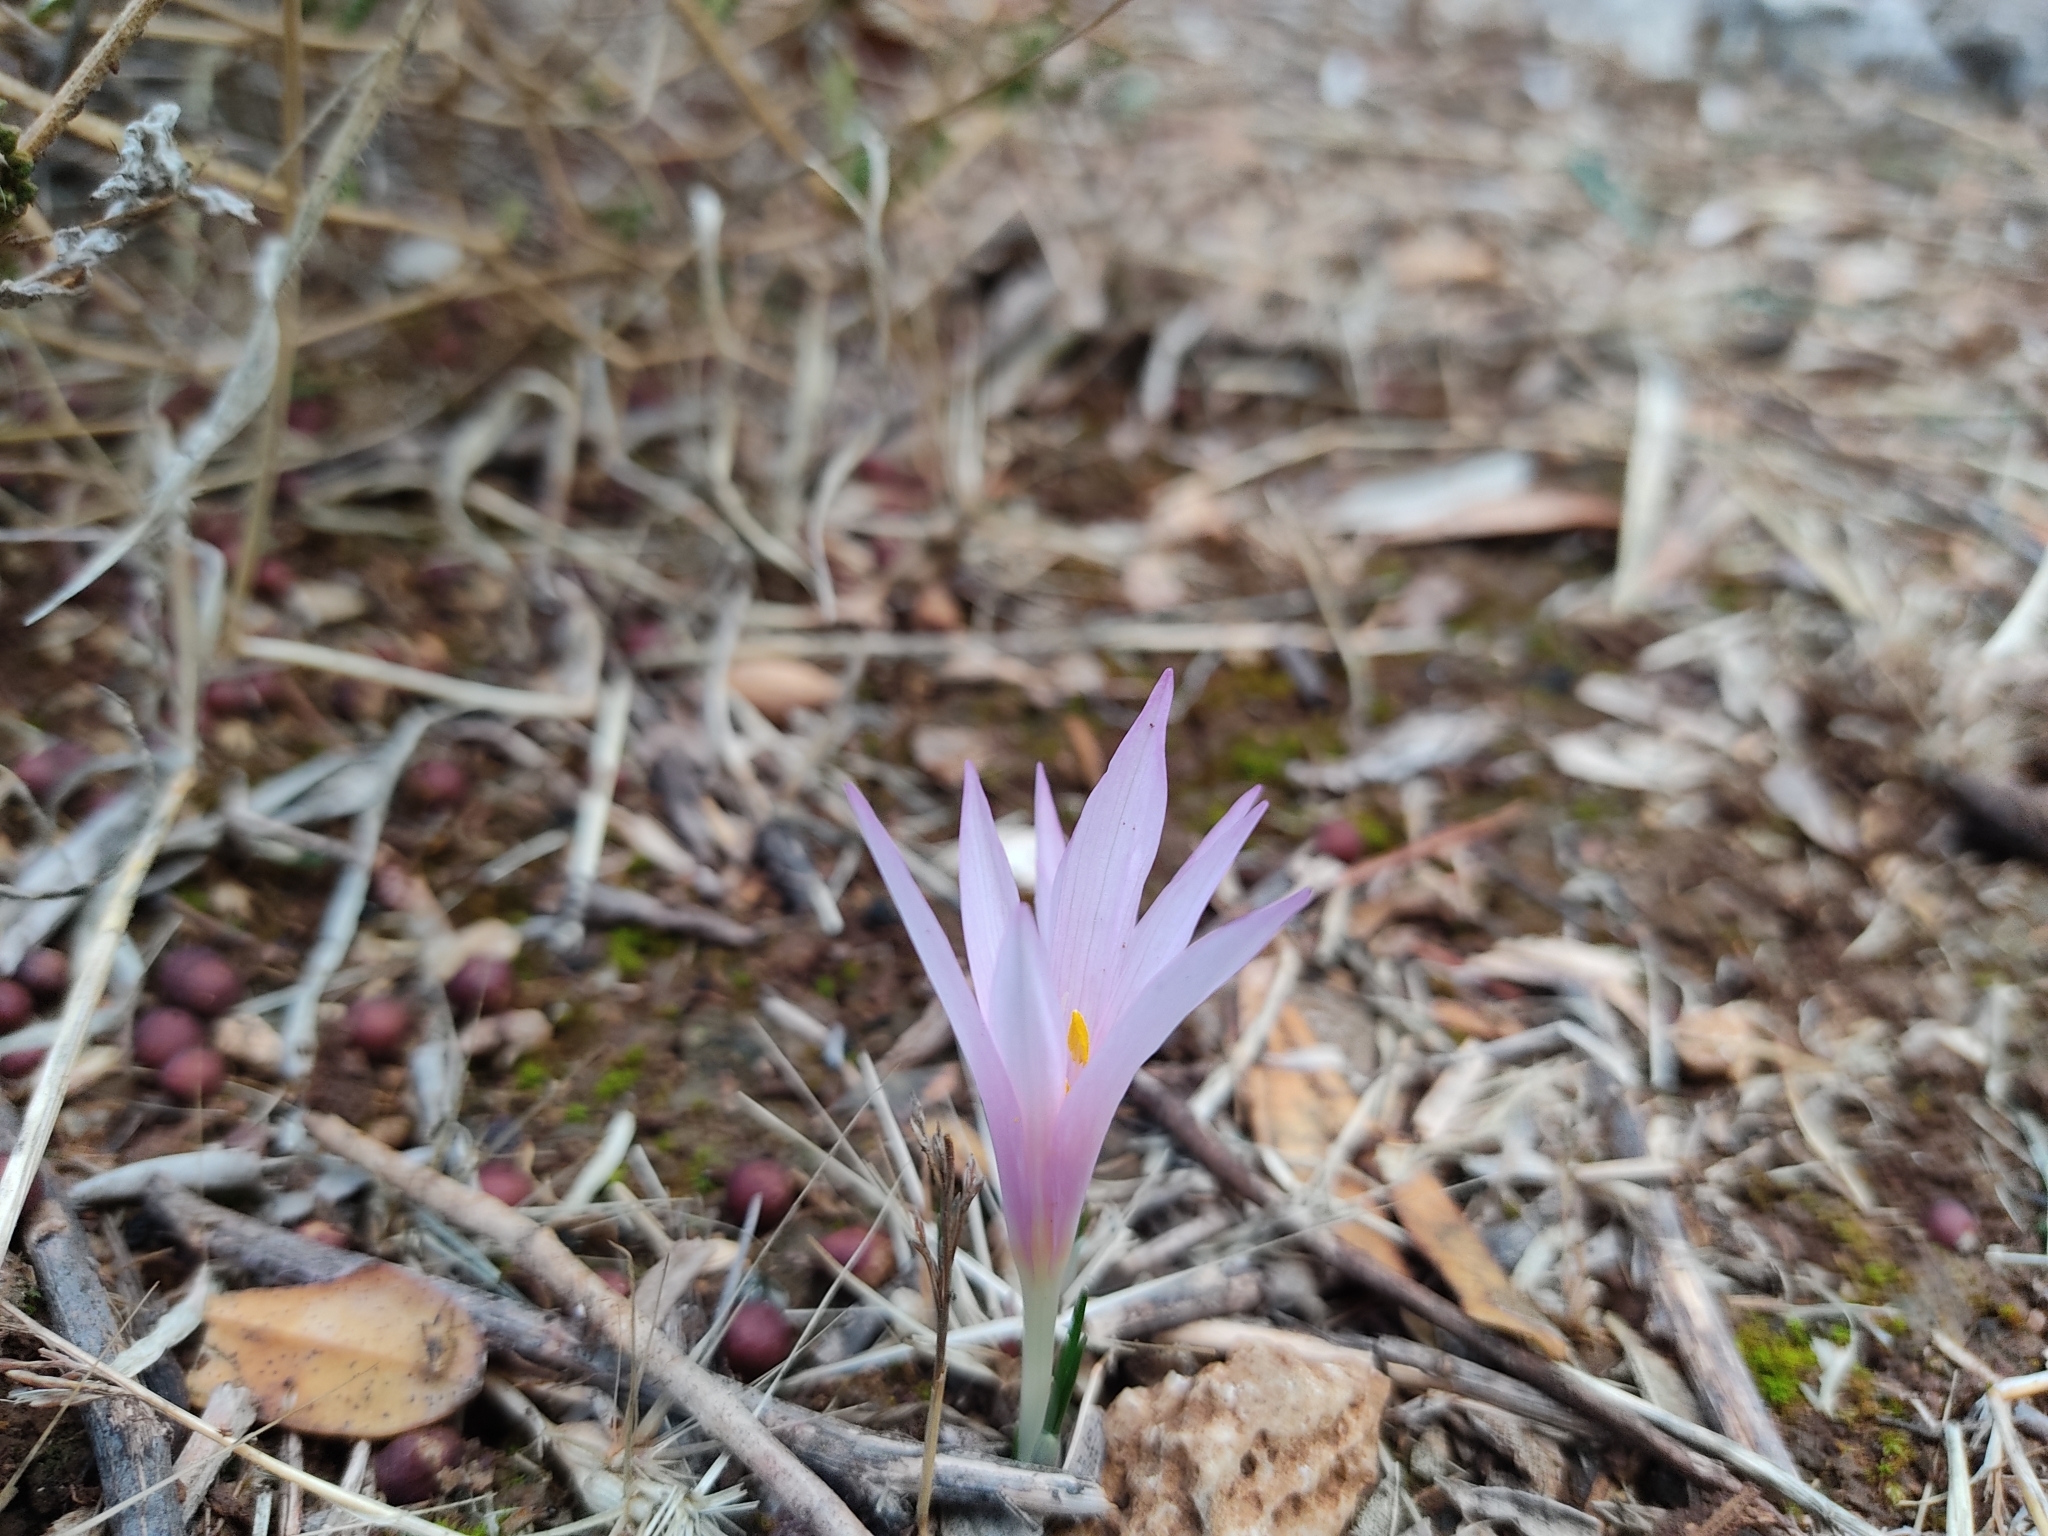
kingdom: Plantae
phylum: Tracheophyta
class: Liliopsida
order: Liliales
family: Colchicaceae
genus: Colchicum
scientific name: Colchicum stevenii
